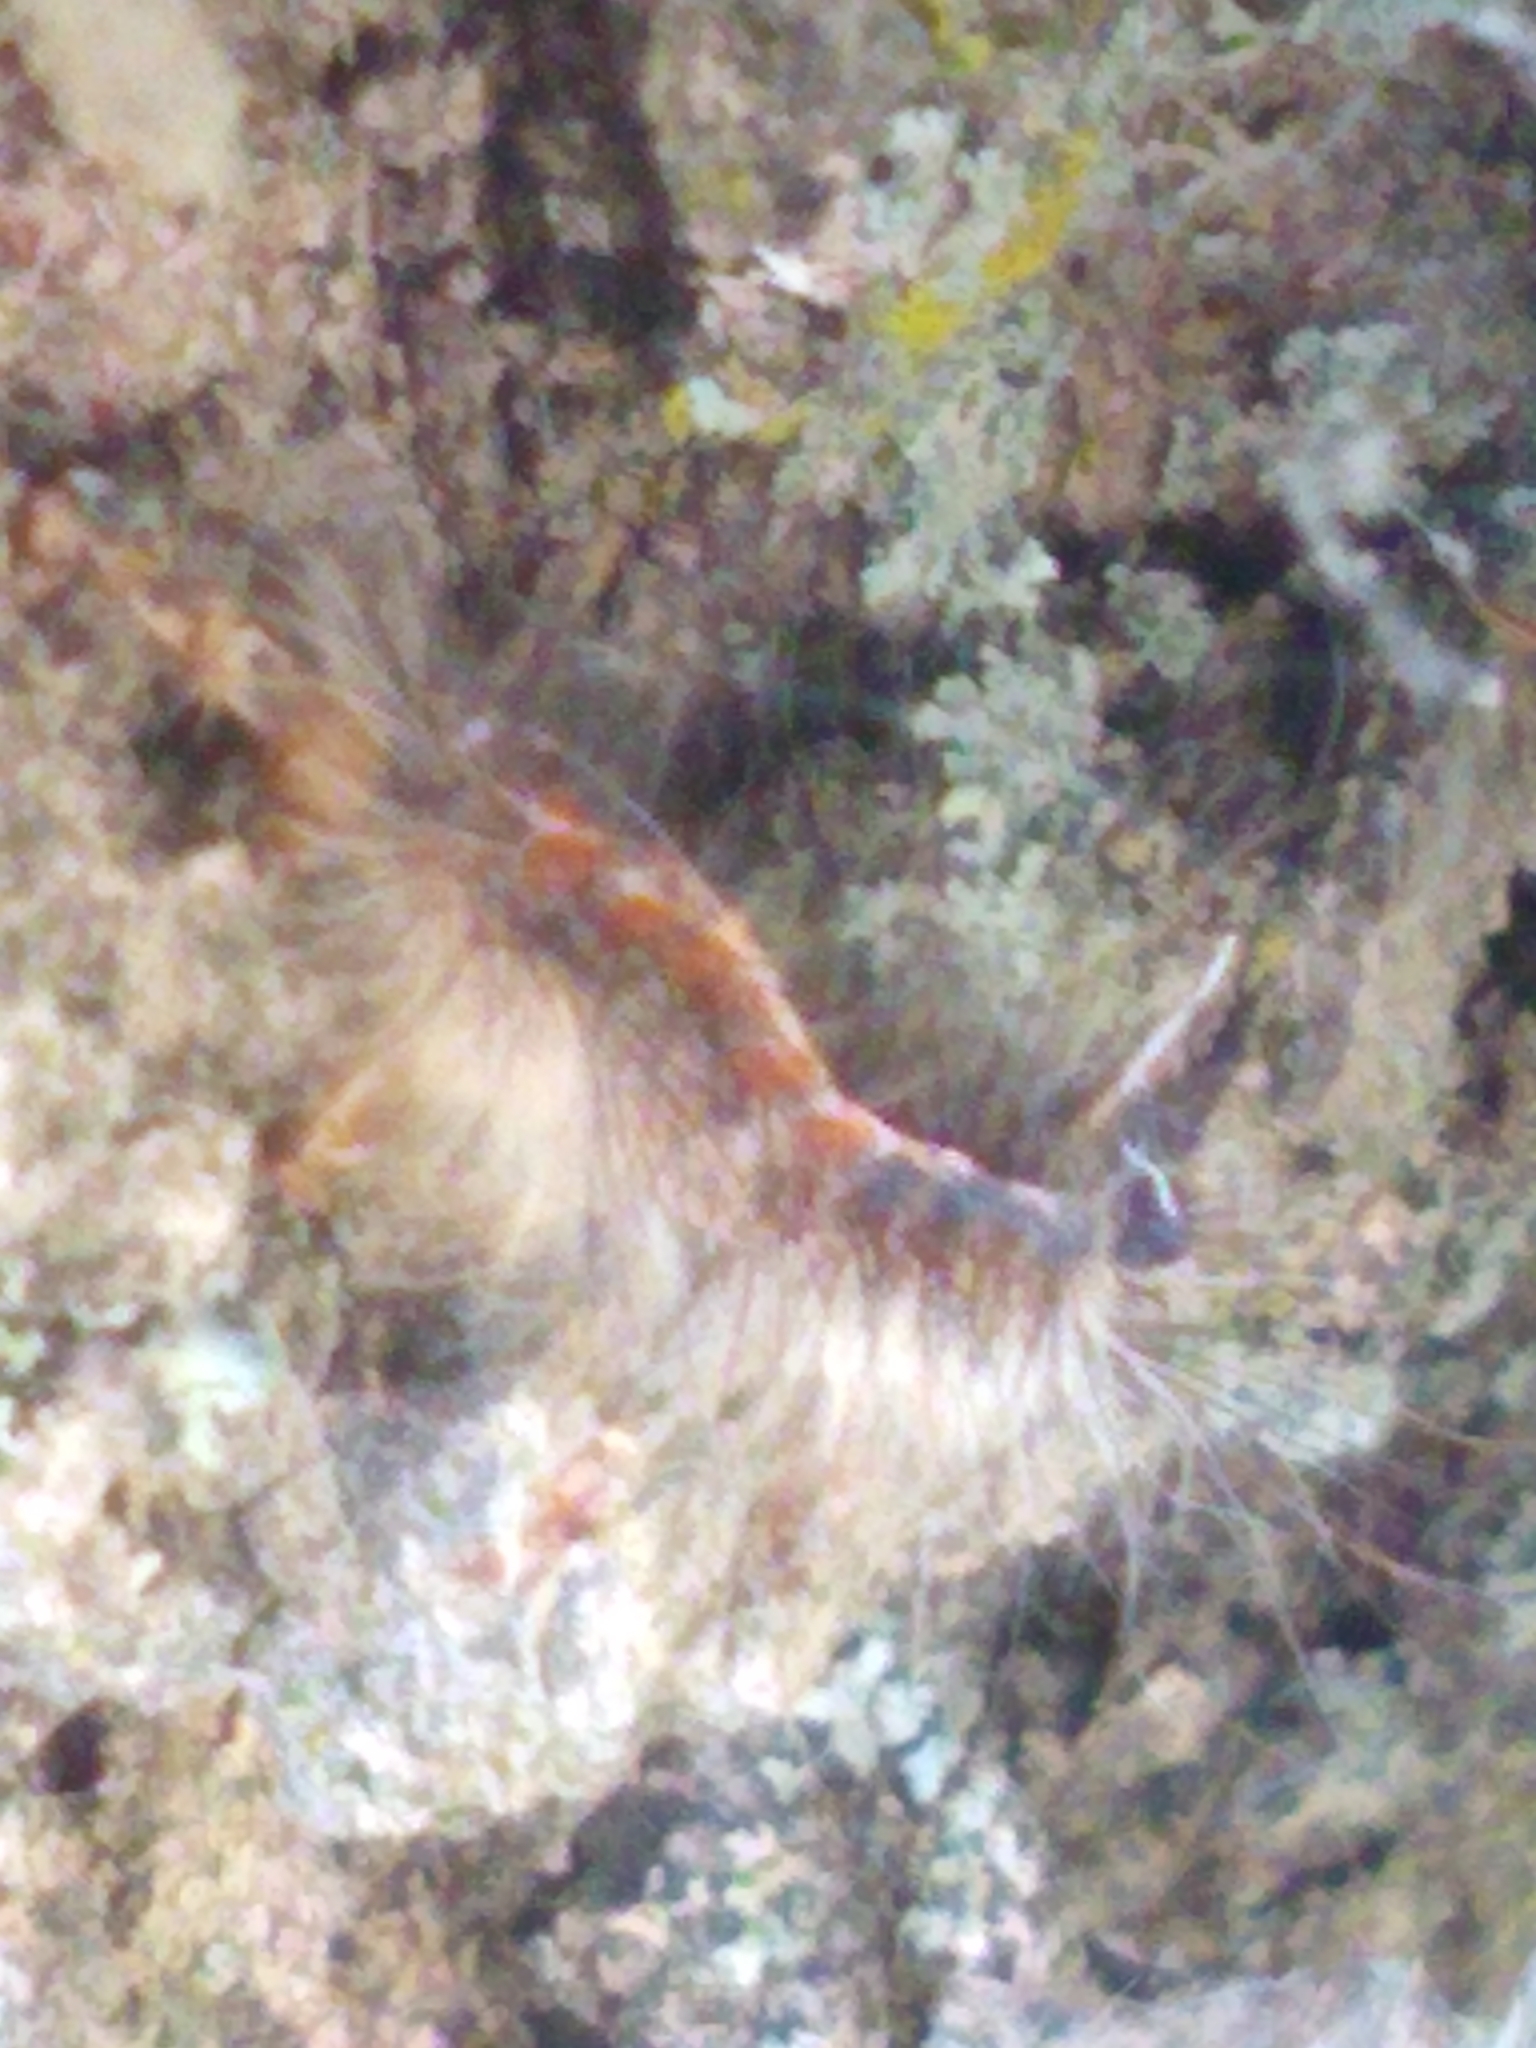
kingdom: Animalia
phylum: Arthropoda
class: Insecta
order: Lepidoptera
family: Erebidae
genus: Lymantria
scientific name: Lymantria dispar
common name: Gypsy moth
